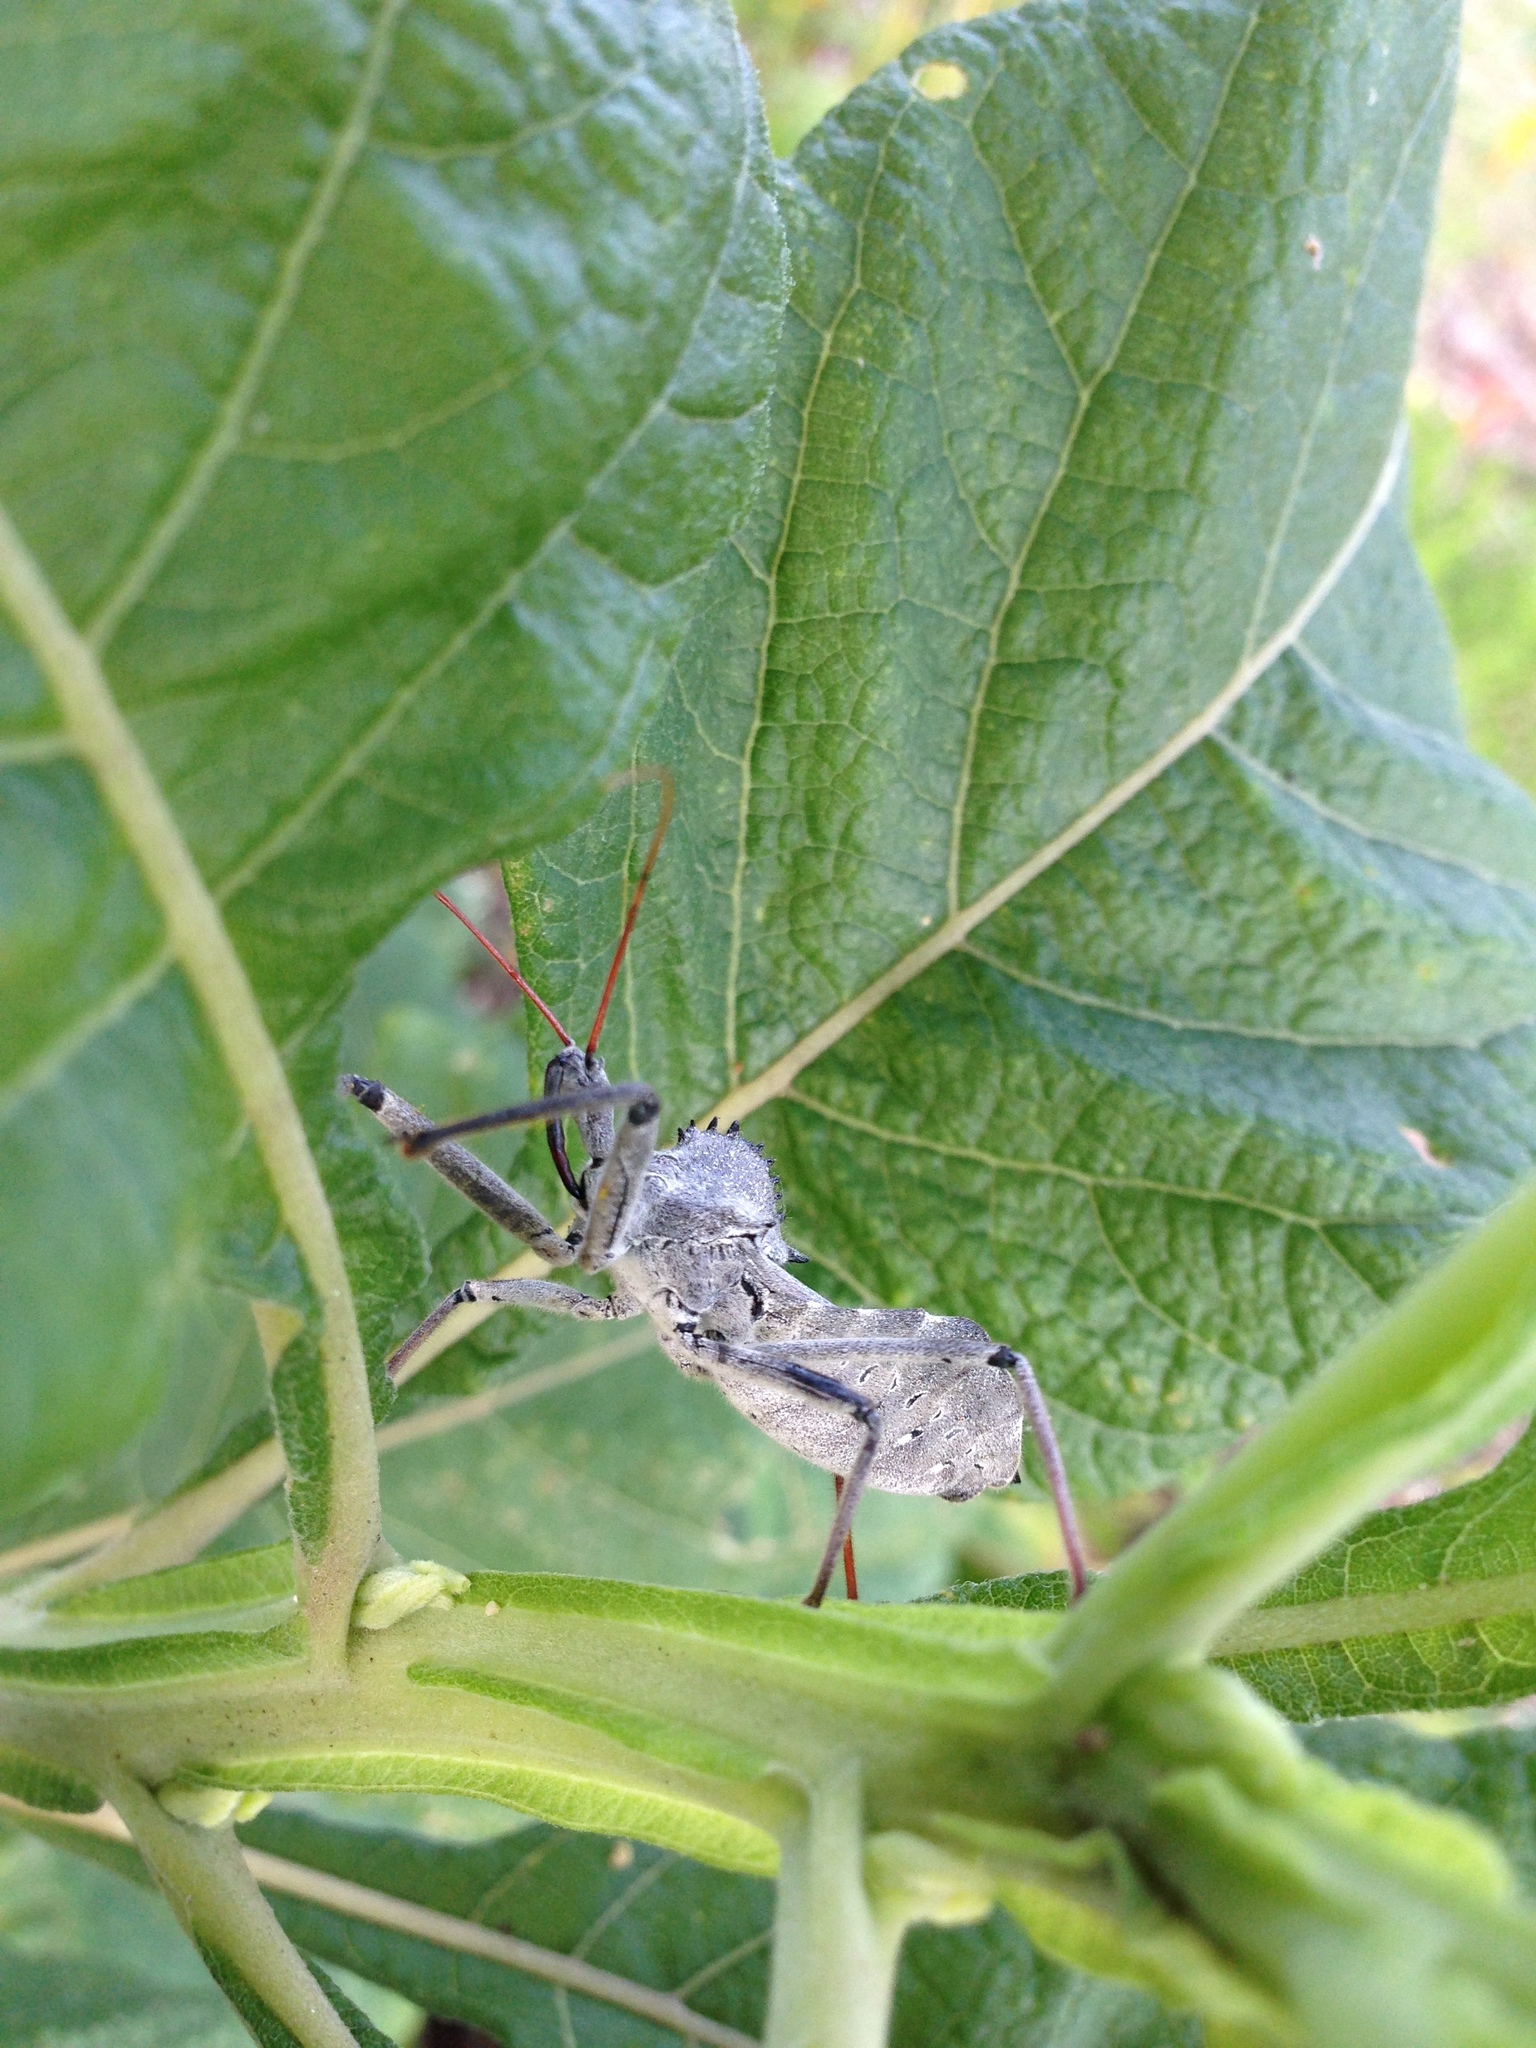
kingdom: Animalia
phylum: Arthropoda
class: Insecta
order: Hemiptera
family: Reduviidae
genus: Arilus
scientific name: Arilus cristatus
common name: North american wheel bug
